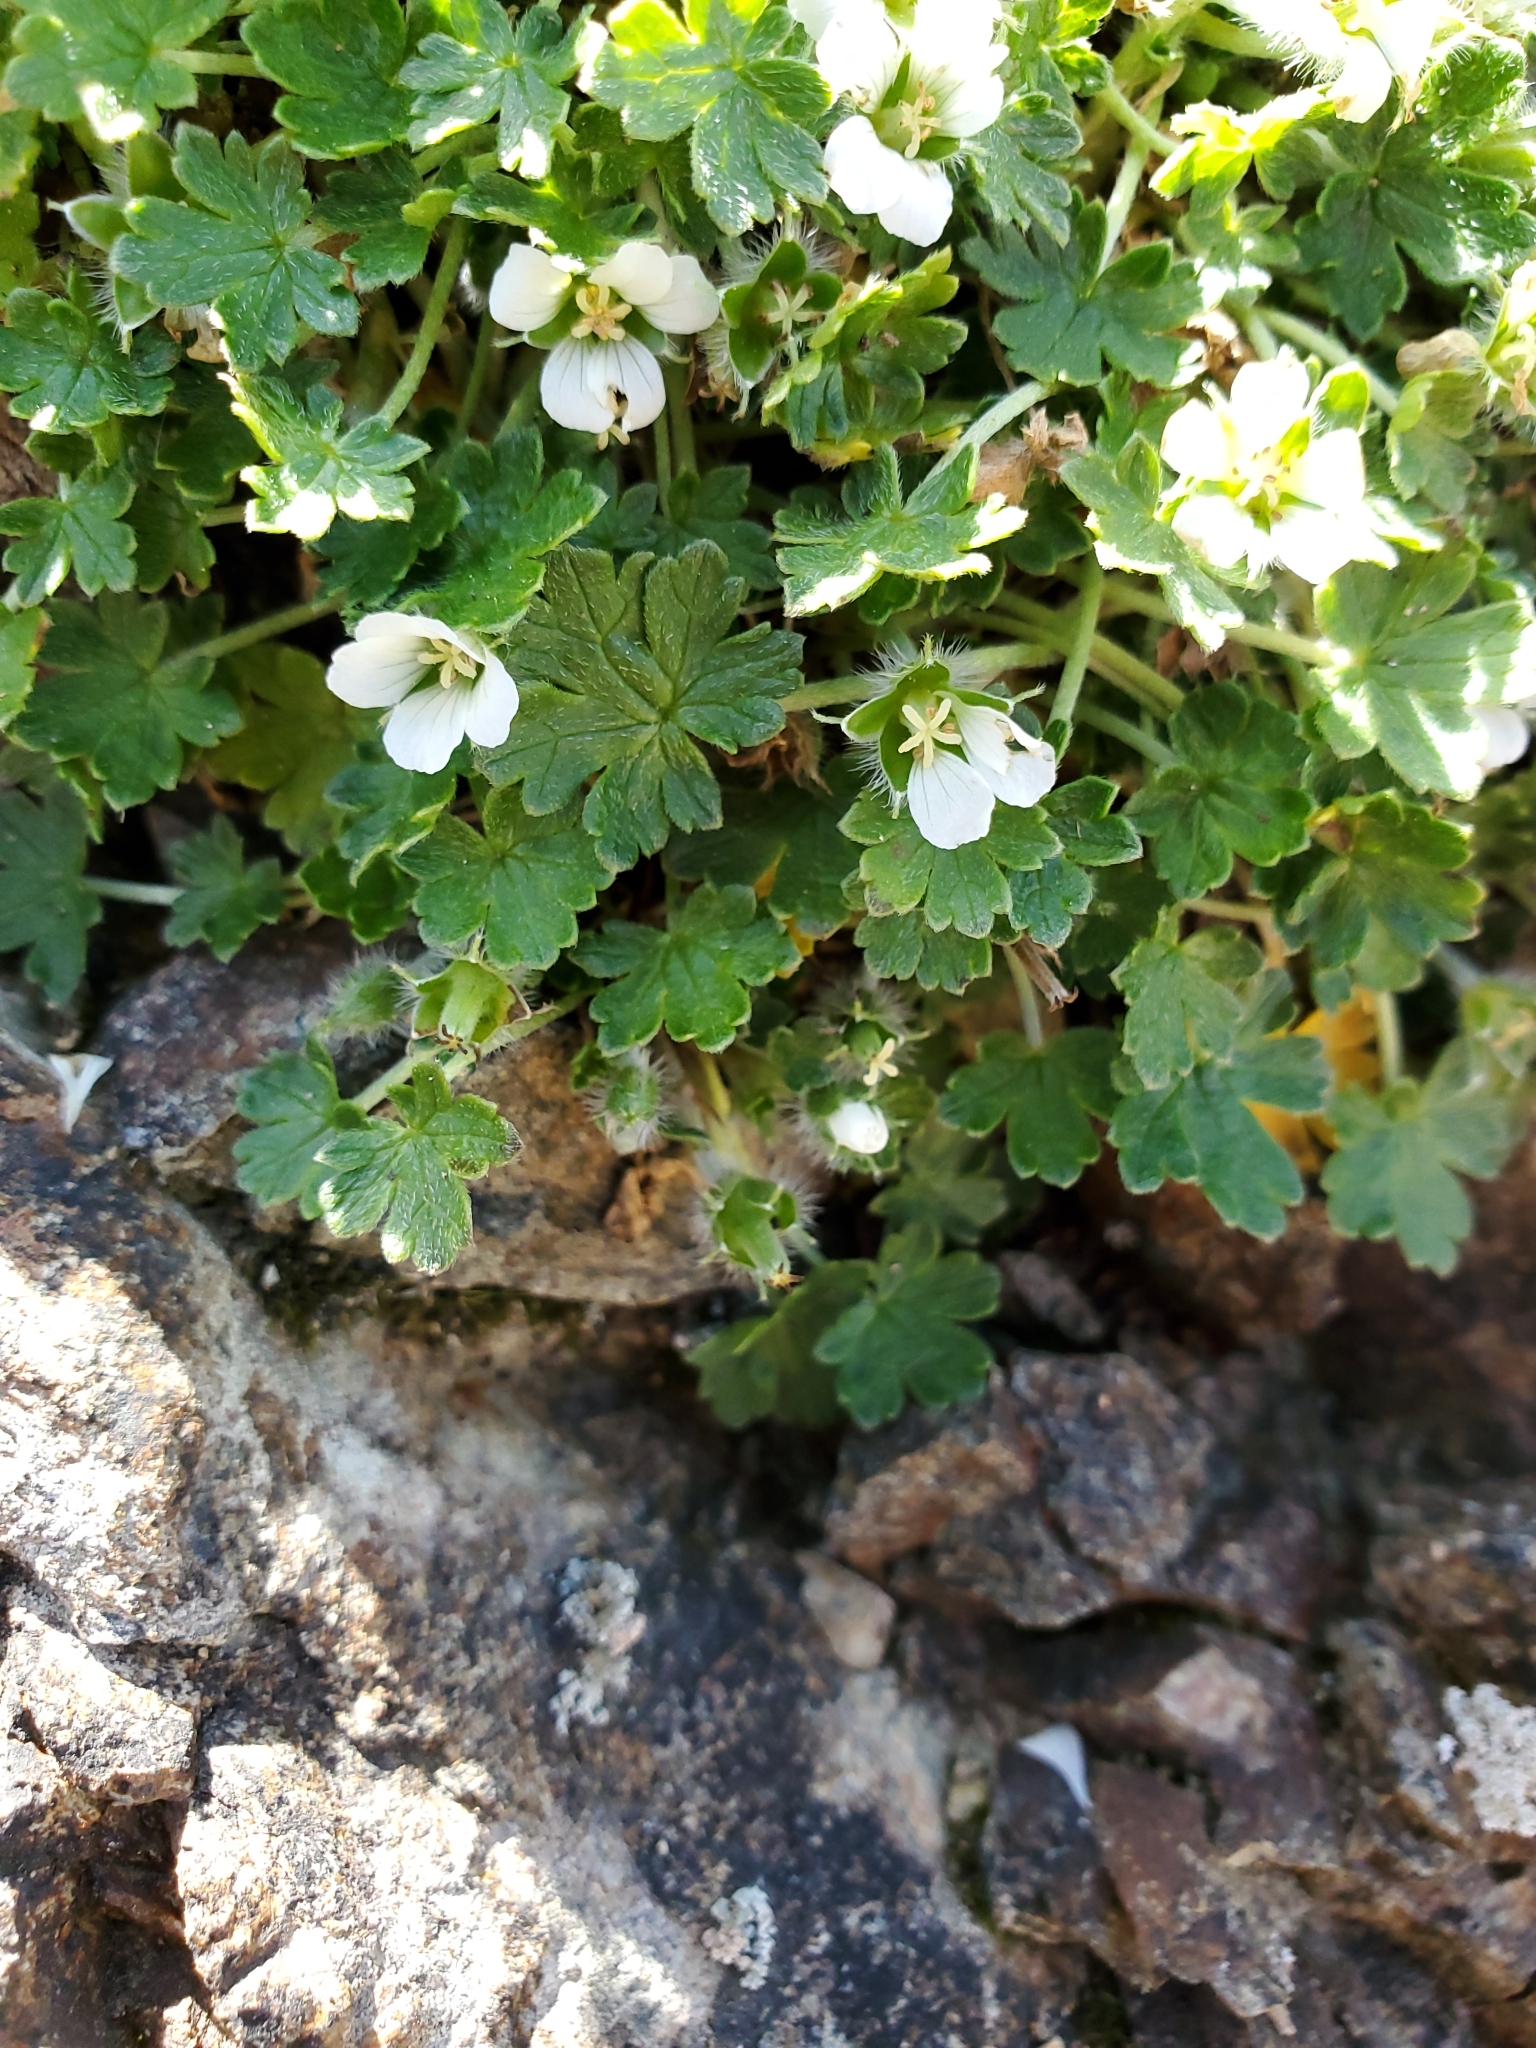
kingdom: Plantae
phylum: Tracheophyta
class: Magnoliopsida
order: Geraniales
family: Geraniaceae
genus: Geranium
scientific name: Geranium brevicaule
